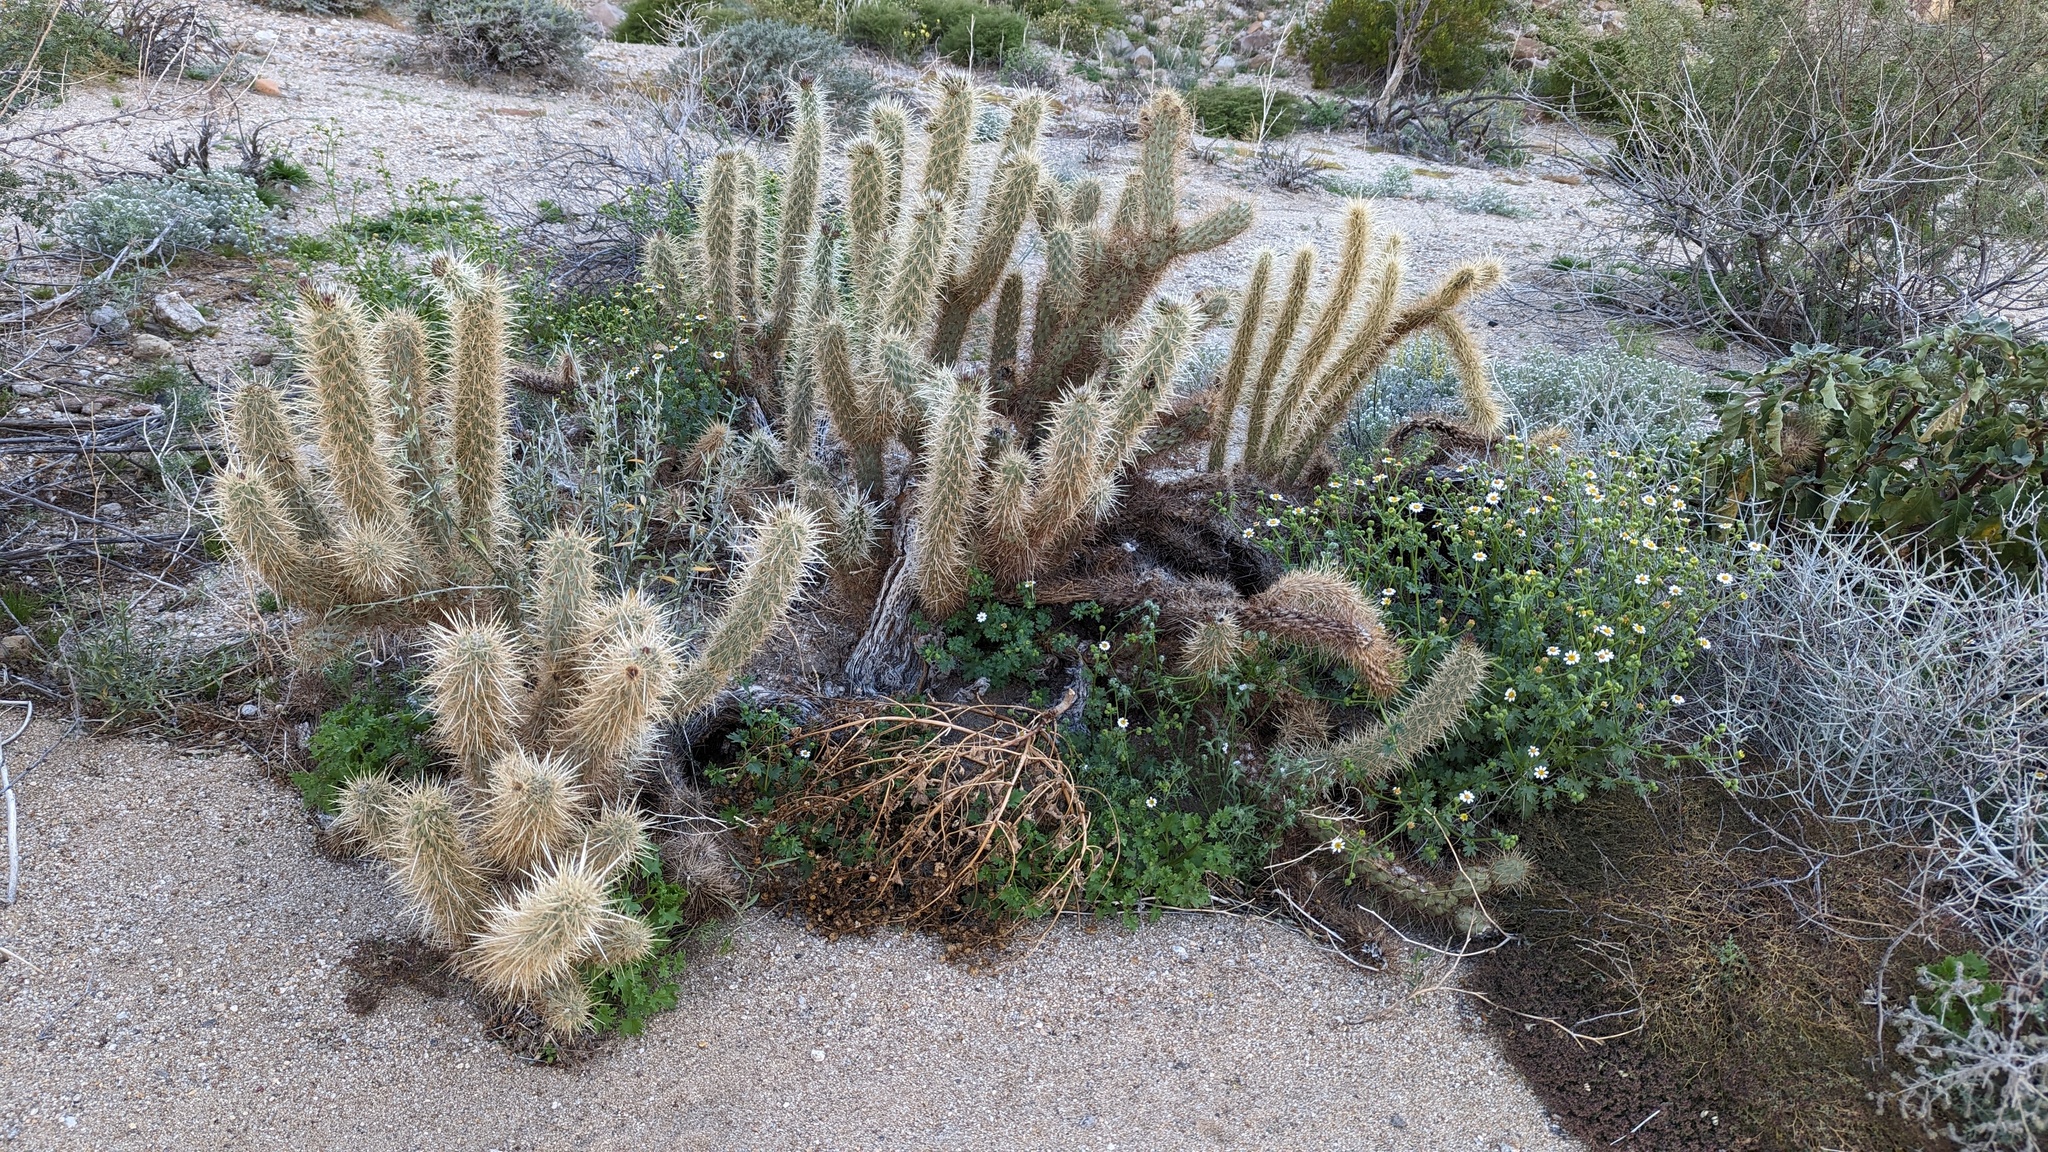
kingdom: Plantae
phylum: Tracheophyta
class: Magnoliopsida
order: Caryophyllales
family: Cactaceae
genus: Cylindropuntia
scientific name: Cylindropuntia ganderi
